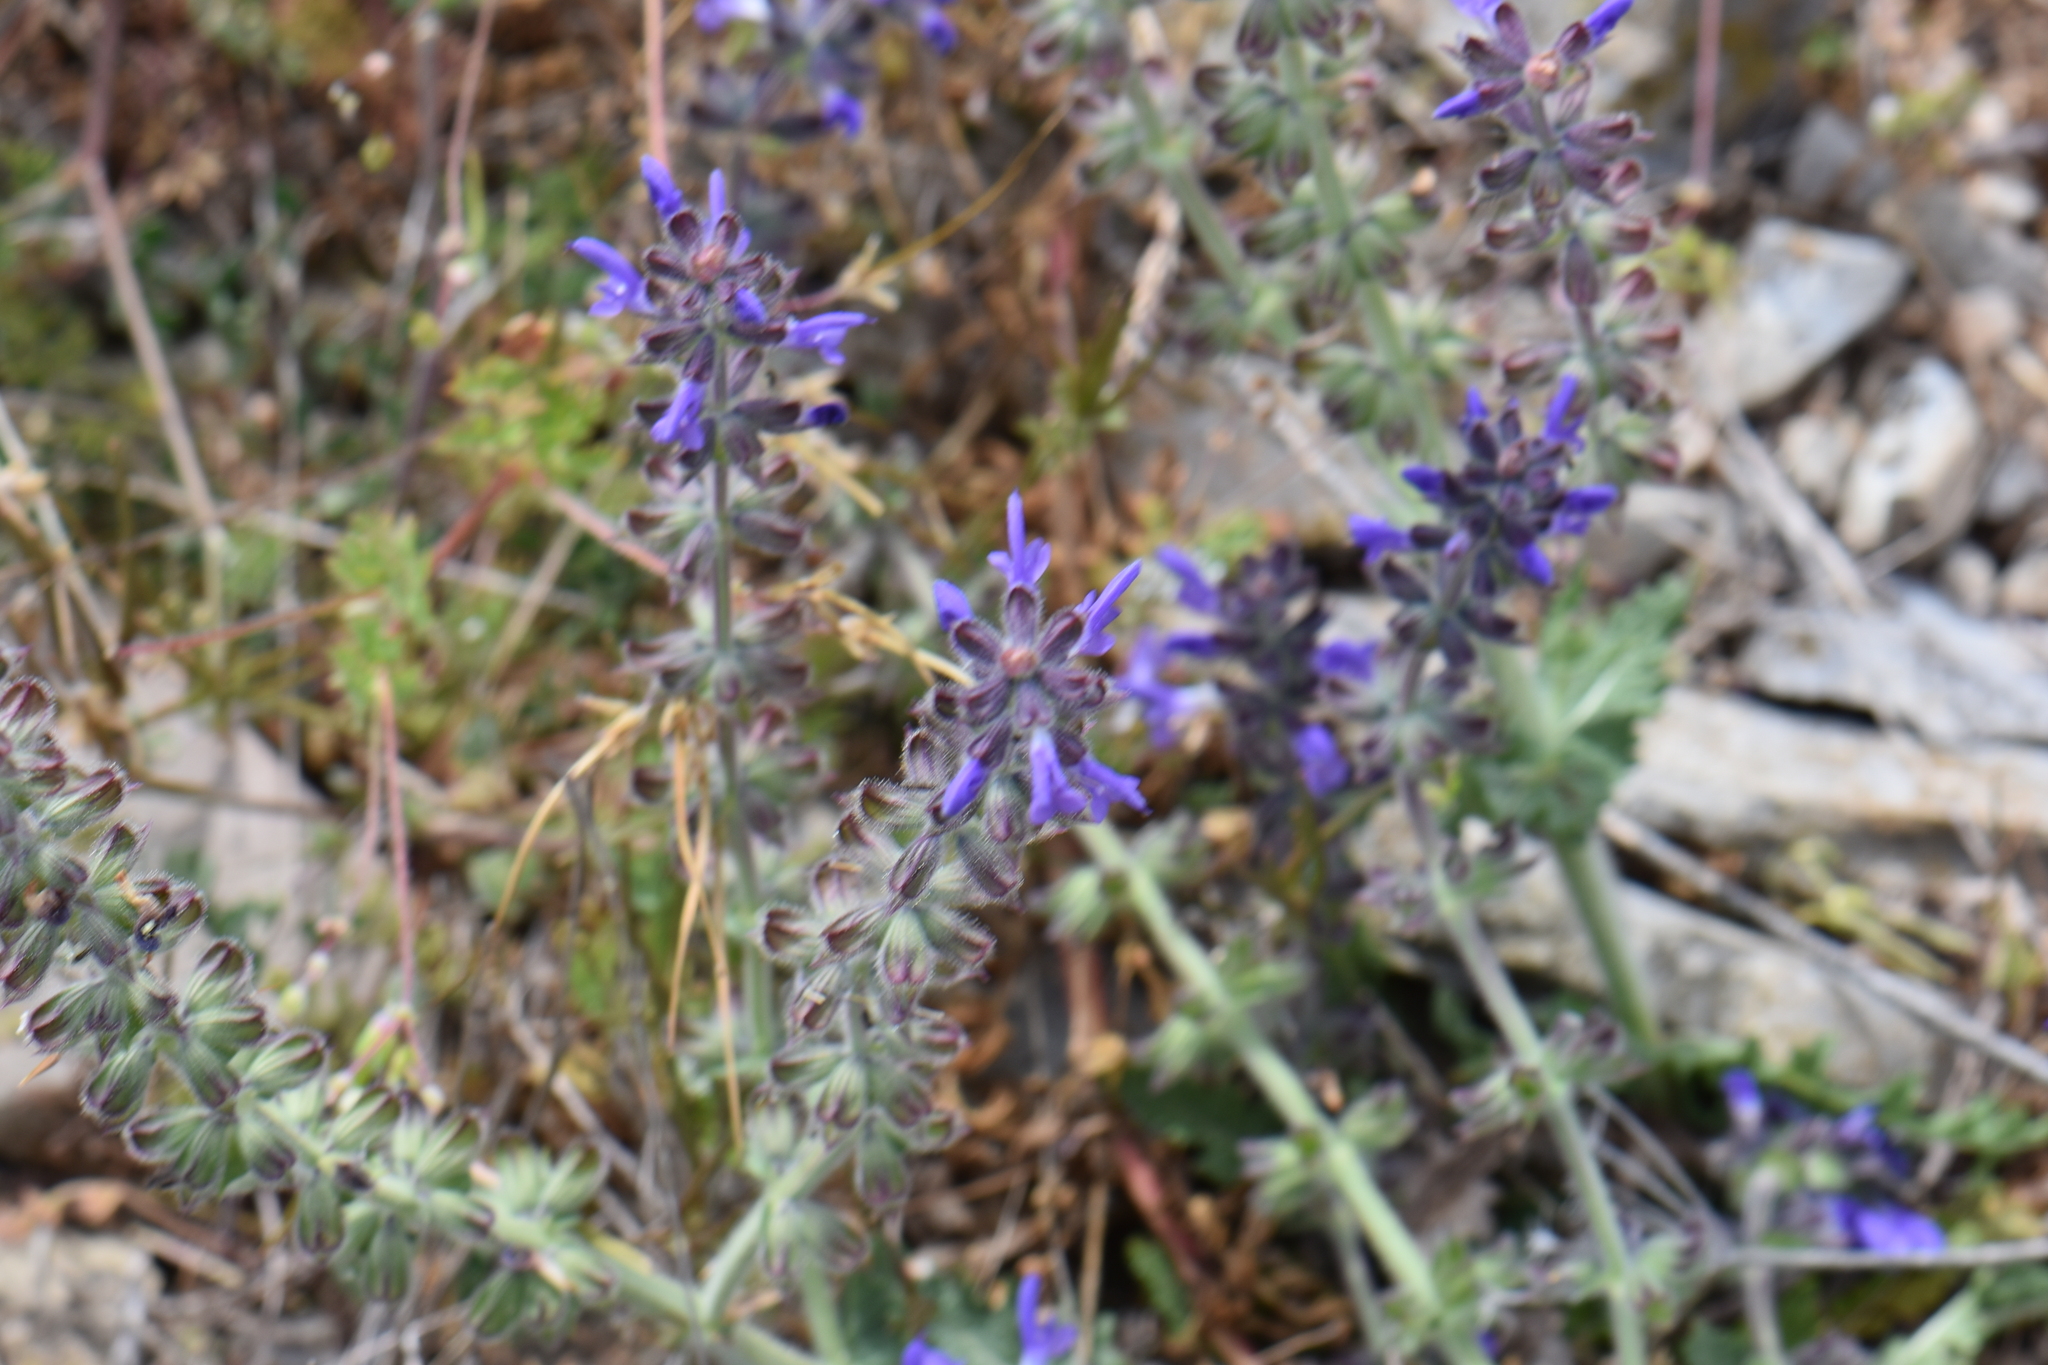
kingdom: Plantae
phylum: Tracheophyta
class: Magnoliopsida
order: Lamiales
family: Lamiaceae
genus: Salvia
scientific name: Salvia verbenaca
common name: Wild clary
